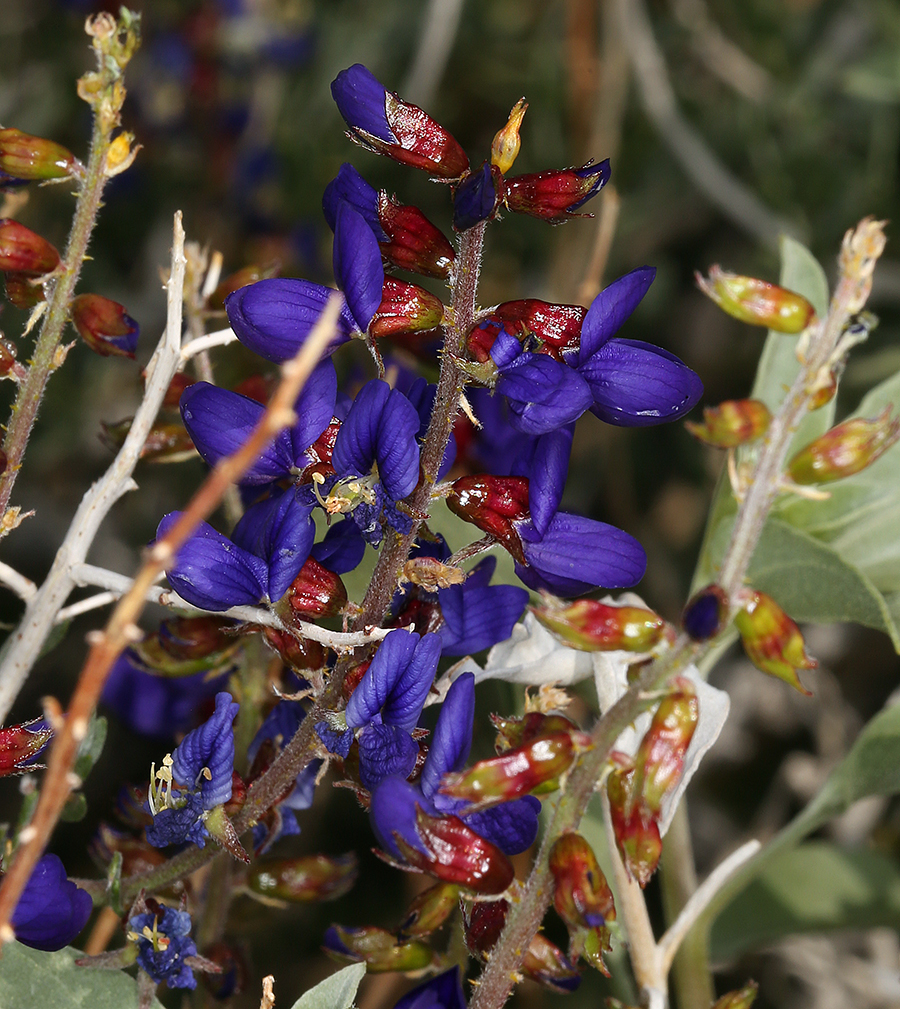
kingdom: Plantae
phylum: Tracheophyta
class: Magnoliopsida
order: Fabales
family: Fabaceae
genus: Psorothamnus
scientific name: Psorothamnus arborescens
